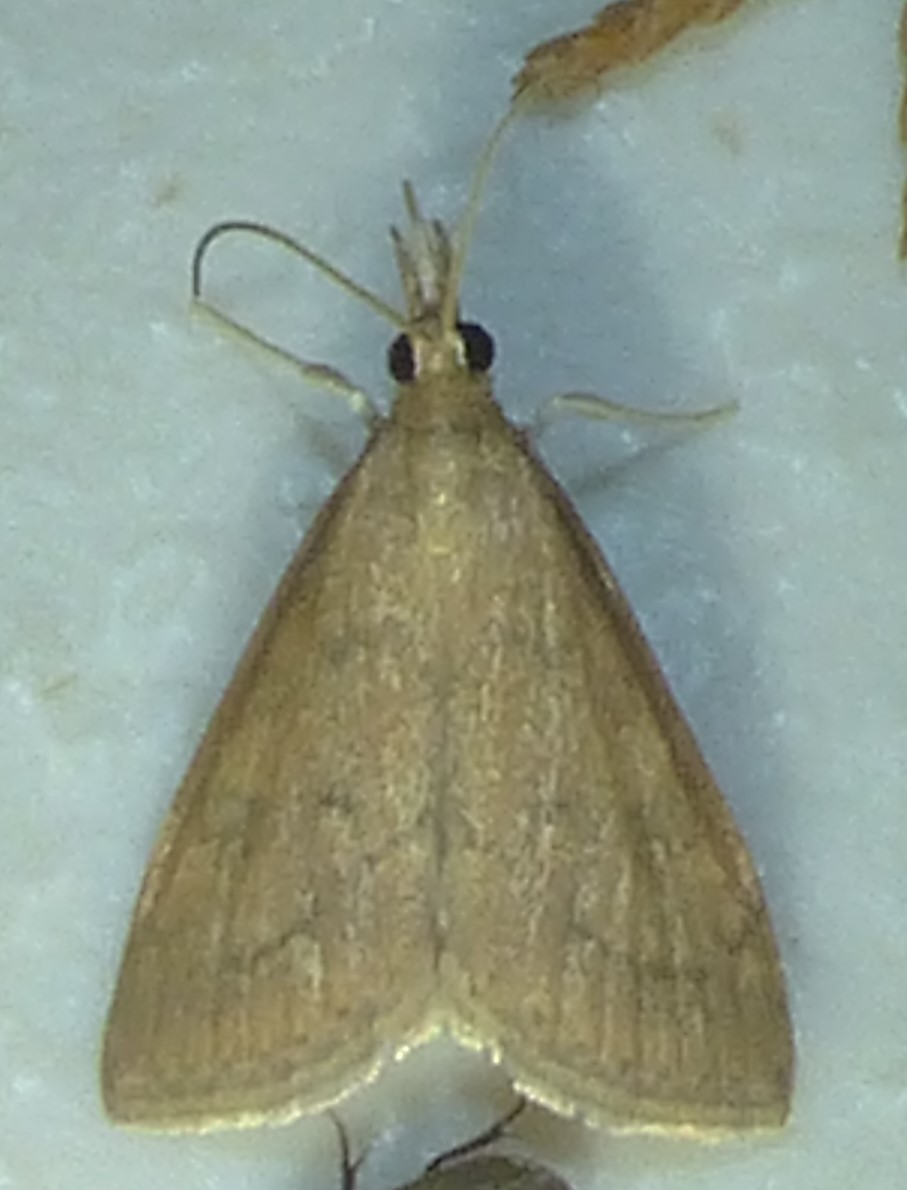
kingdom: Animalia
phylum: Arthropoda
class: Insecta
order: Lepidoptera
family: Crambidae
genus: Udea
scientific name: Udea rubigalis
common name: Celery leaftier moth
